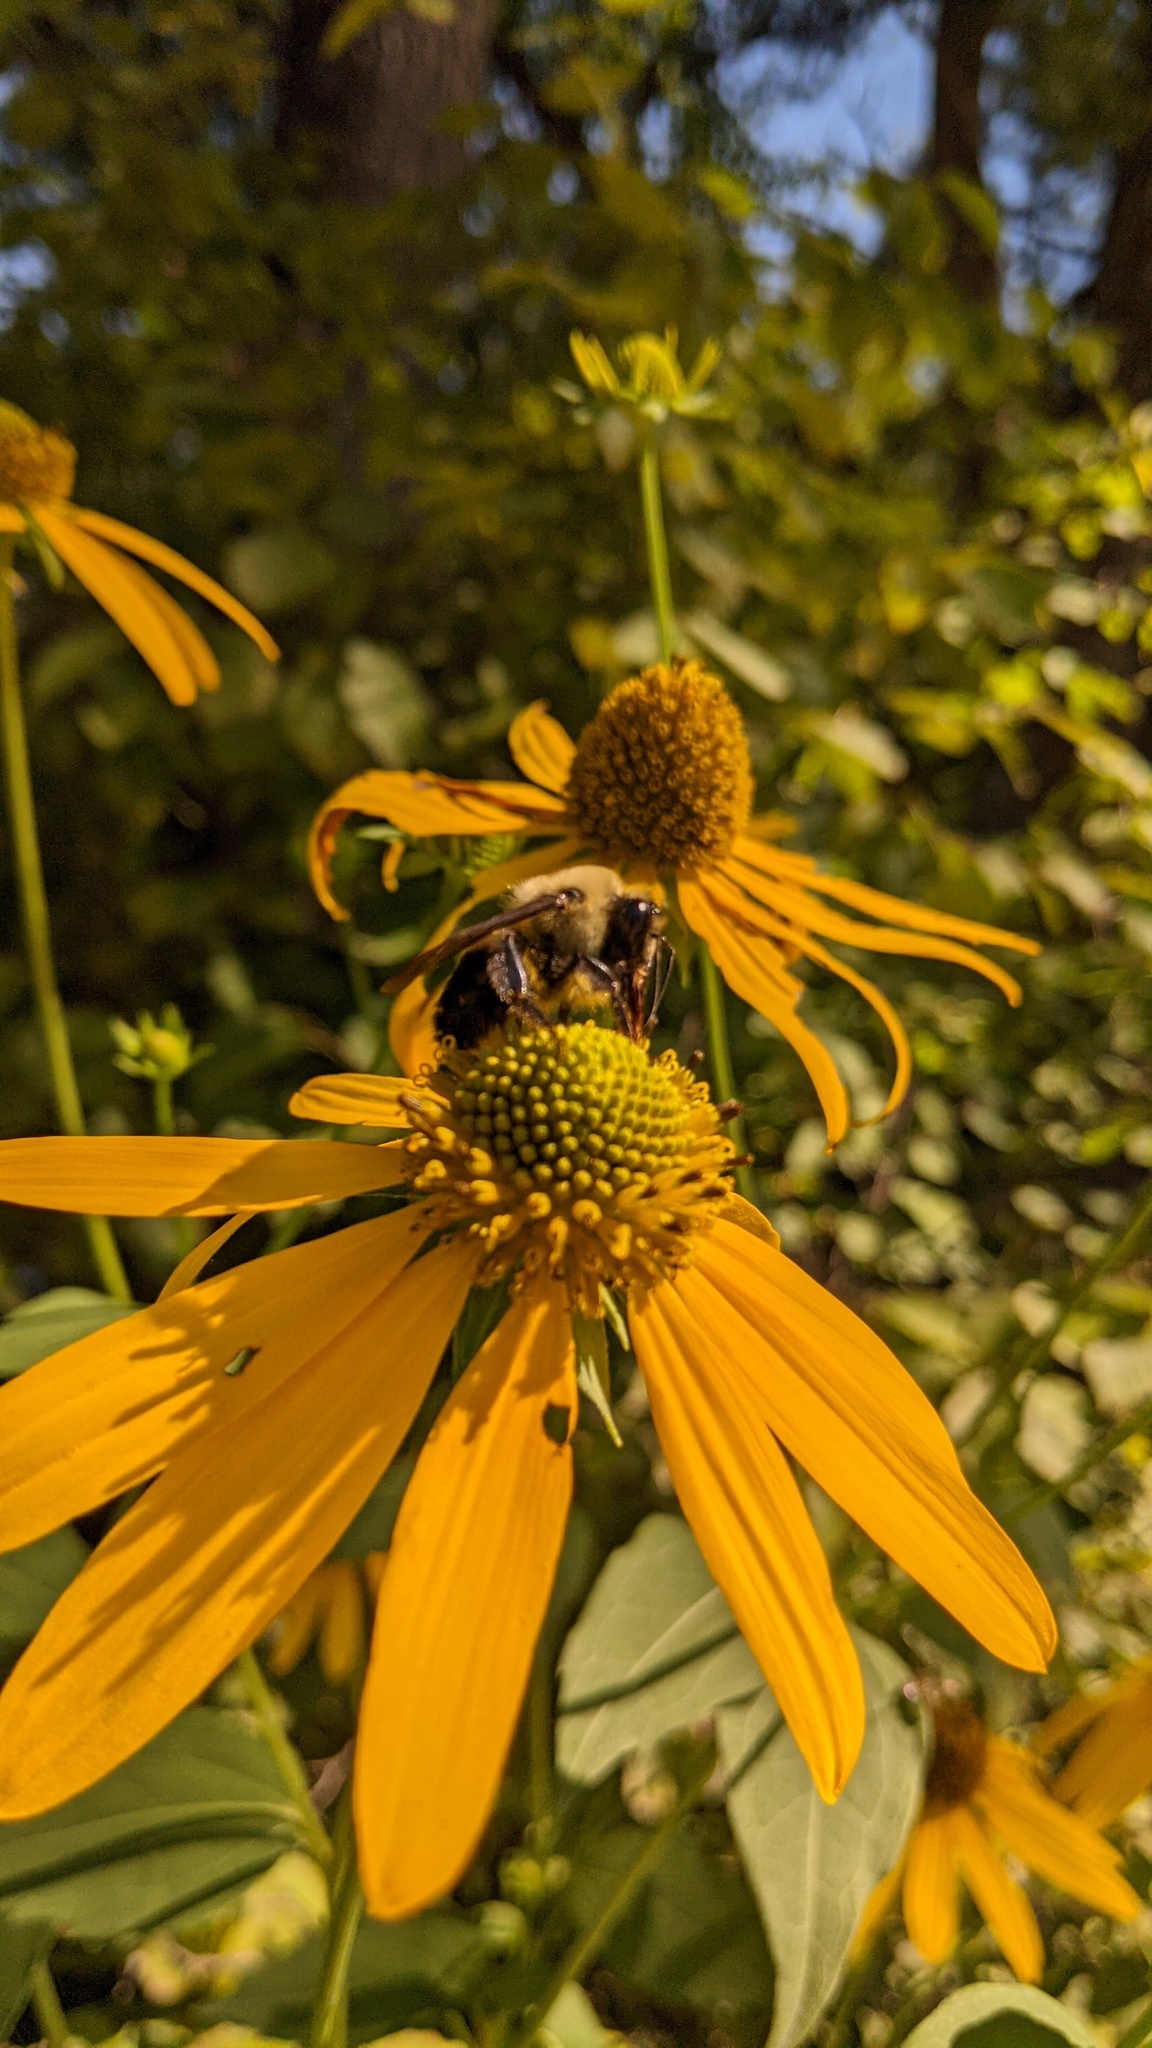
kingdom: Plantae
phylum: Tracheophyta
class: Magnoliopsida
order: Asterales
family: Asteraceae
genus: Rudbeckia
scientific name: Rudbeckia laciniata
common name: Coneflower
